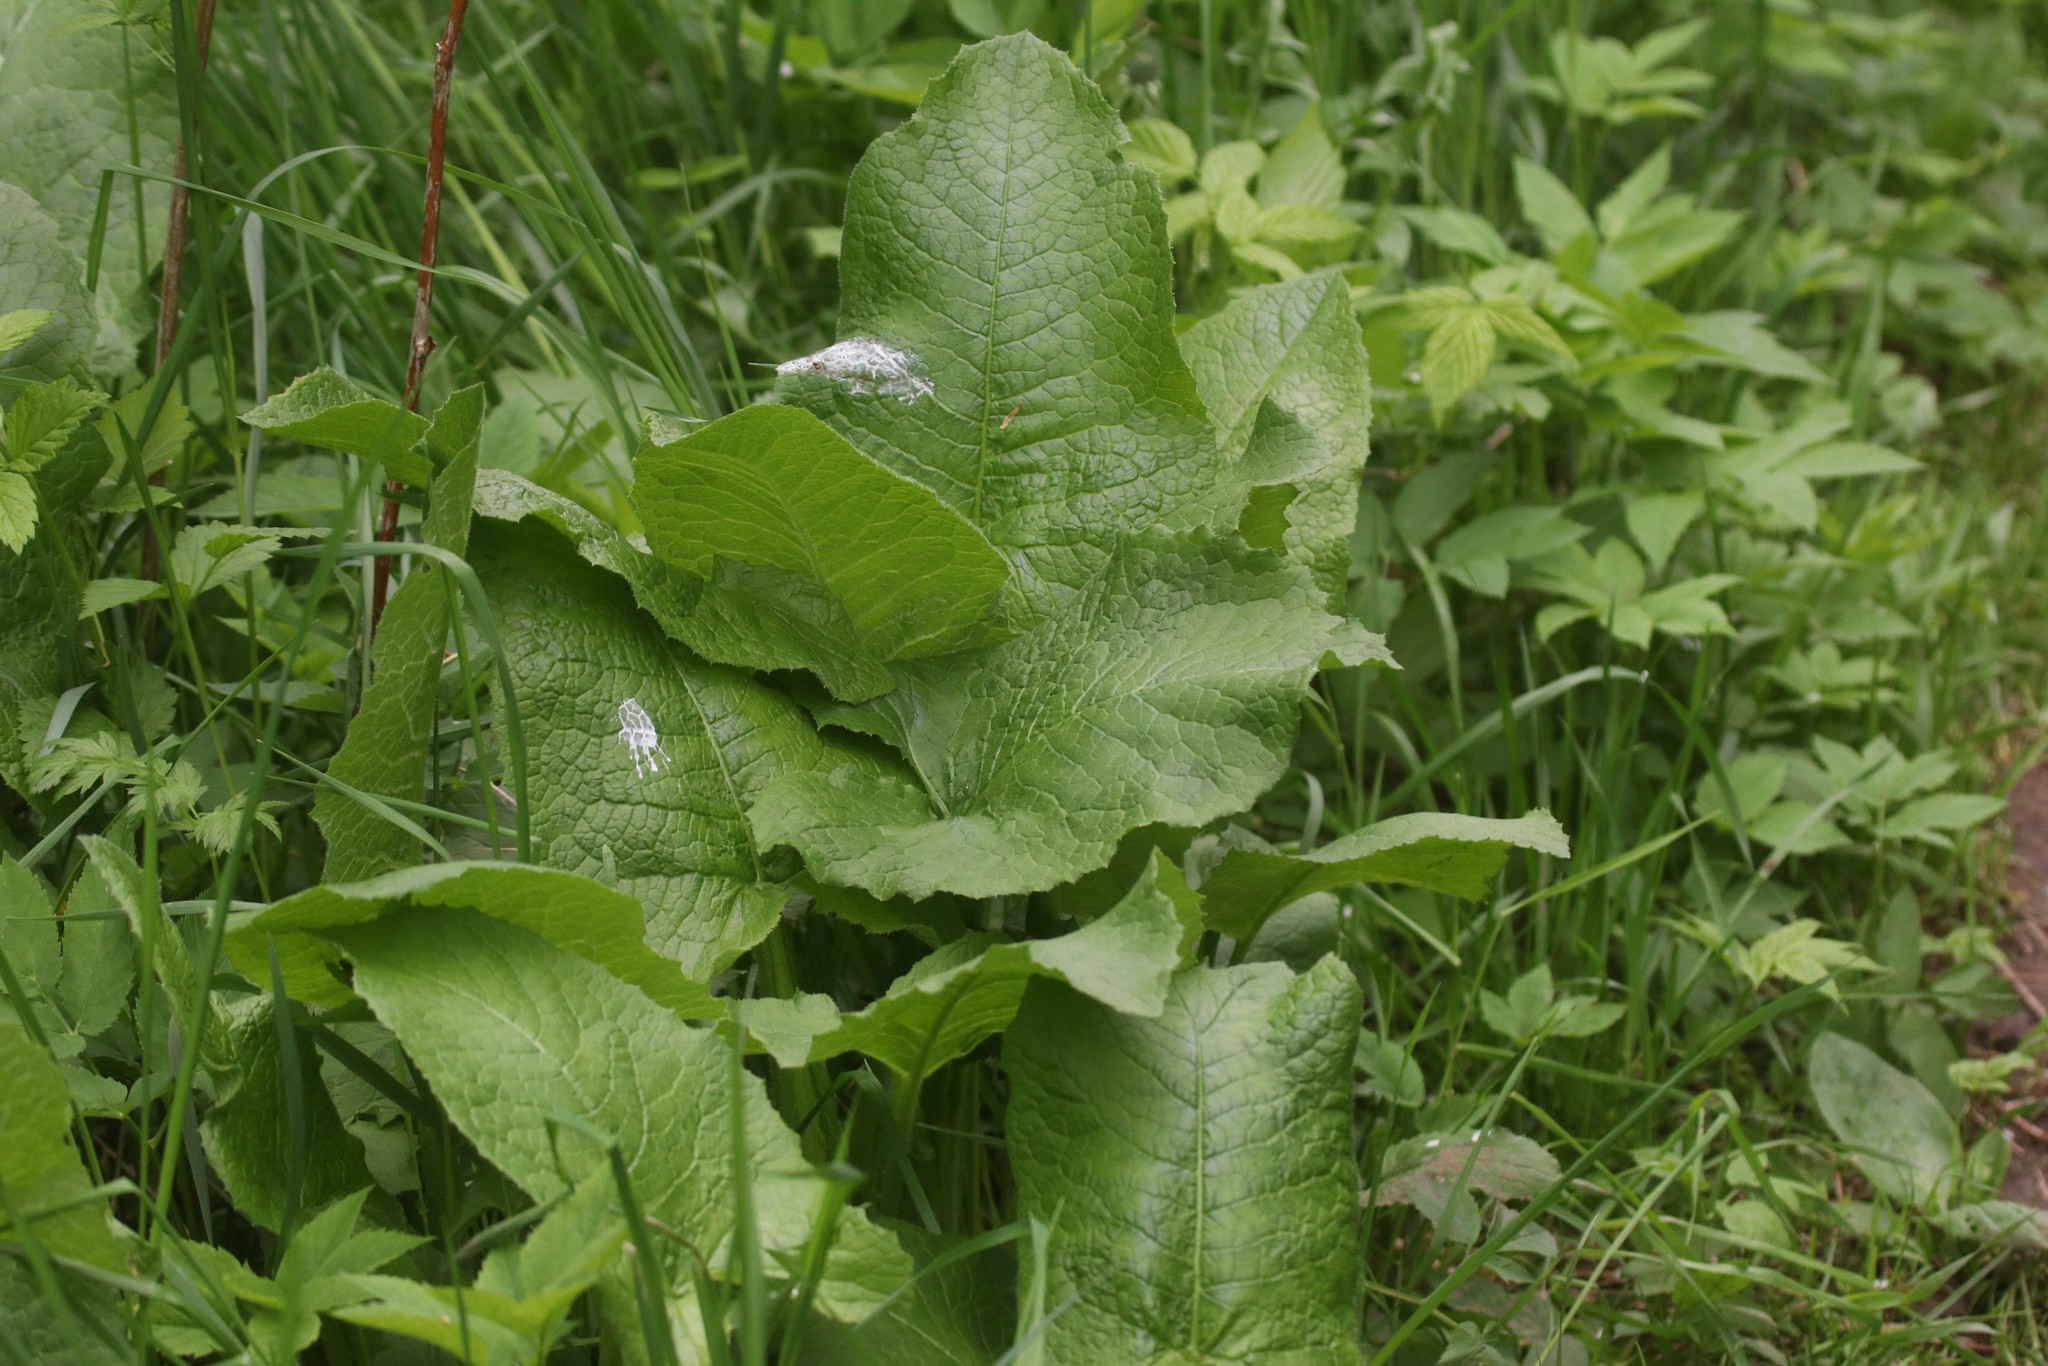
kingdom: Plantae
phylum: Tracheophyta
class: Magnoliopsida
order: Asterales
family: Asteraceae
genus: Lactuca
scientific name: Lactuca macrophylla
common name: Common blue-sow-thistle
